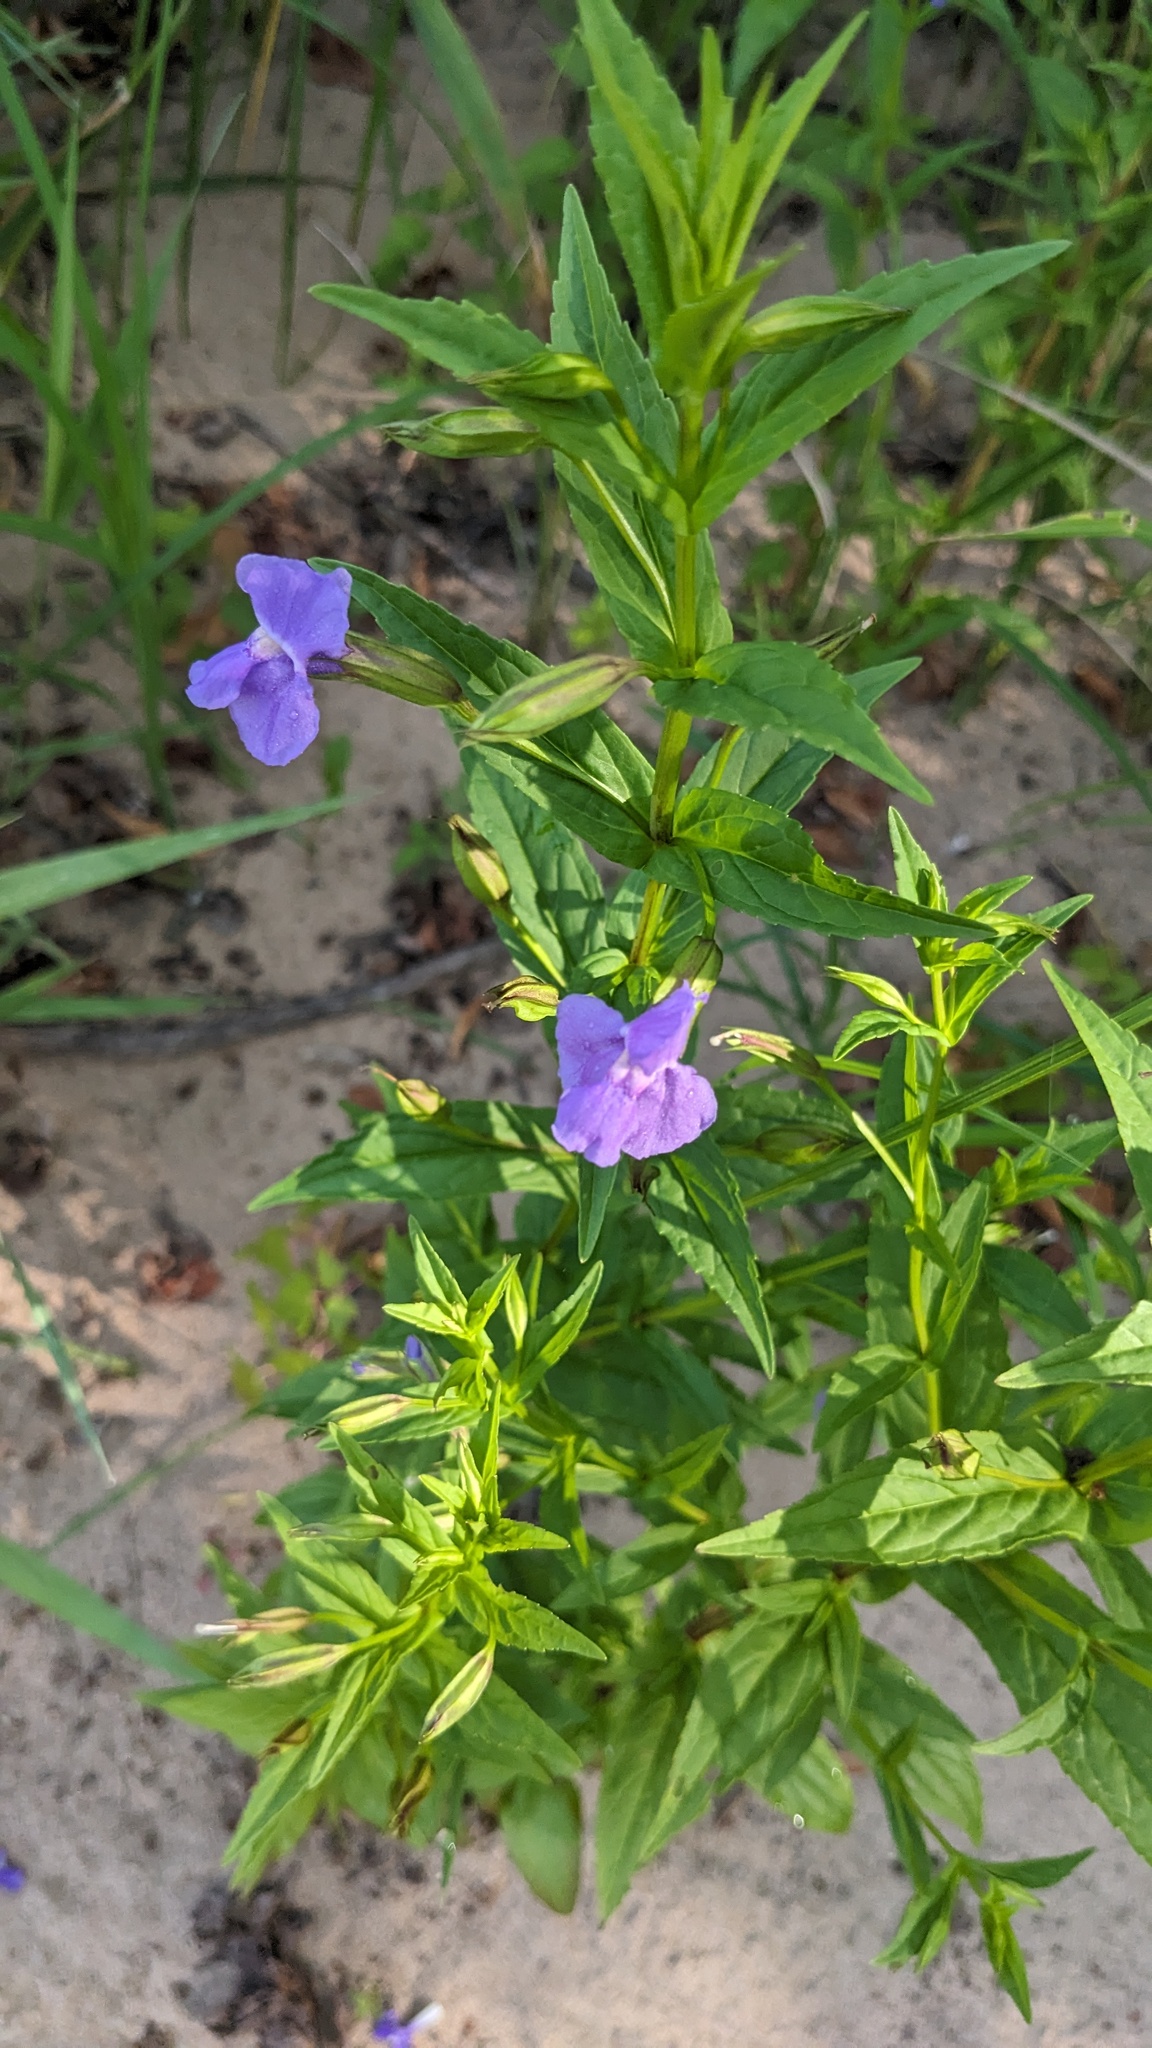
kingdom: Plantae
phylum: Tracheophyta
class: Magnoliopsida
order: Lamiales
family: Phrymaceae
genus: Mimulus
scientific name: Mimulus ringens
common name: Allegheny monkeyflower
